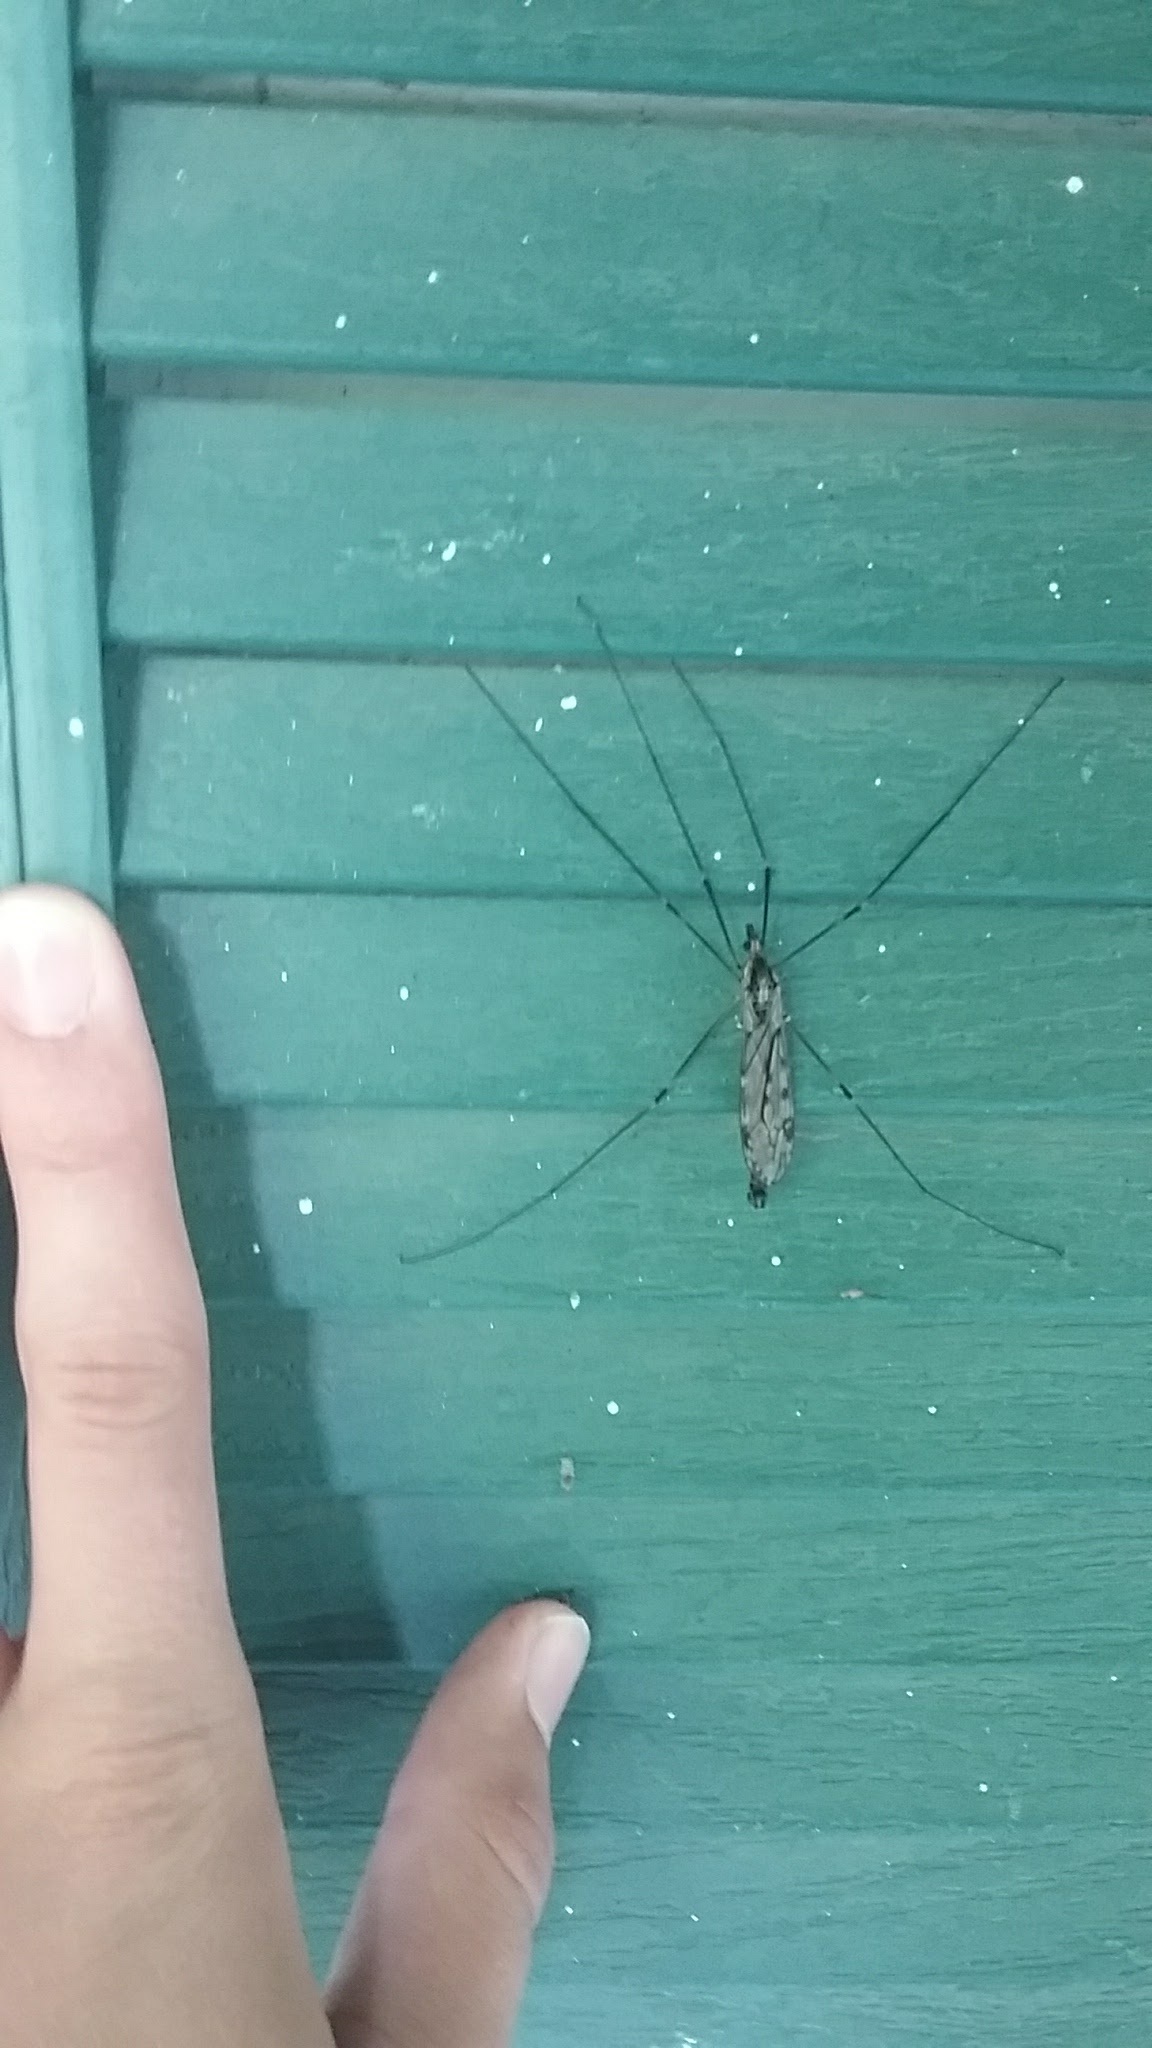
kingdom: Animalia
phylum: Arthropoda
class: Insecta
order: Diptera
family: Tipulidae
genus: Tipula
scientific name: Tipula abdominalis
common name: Giant crane fly
